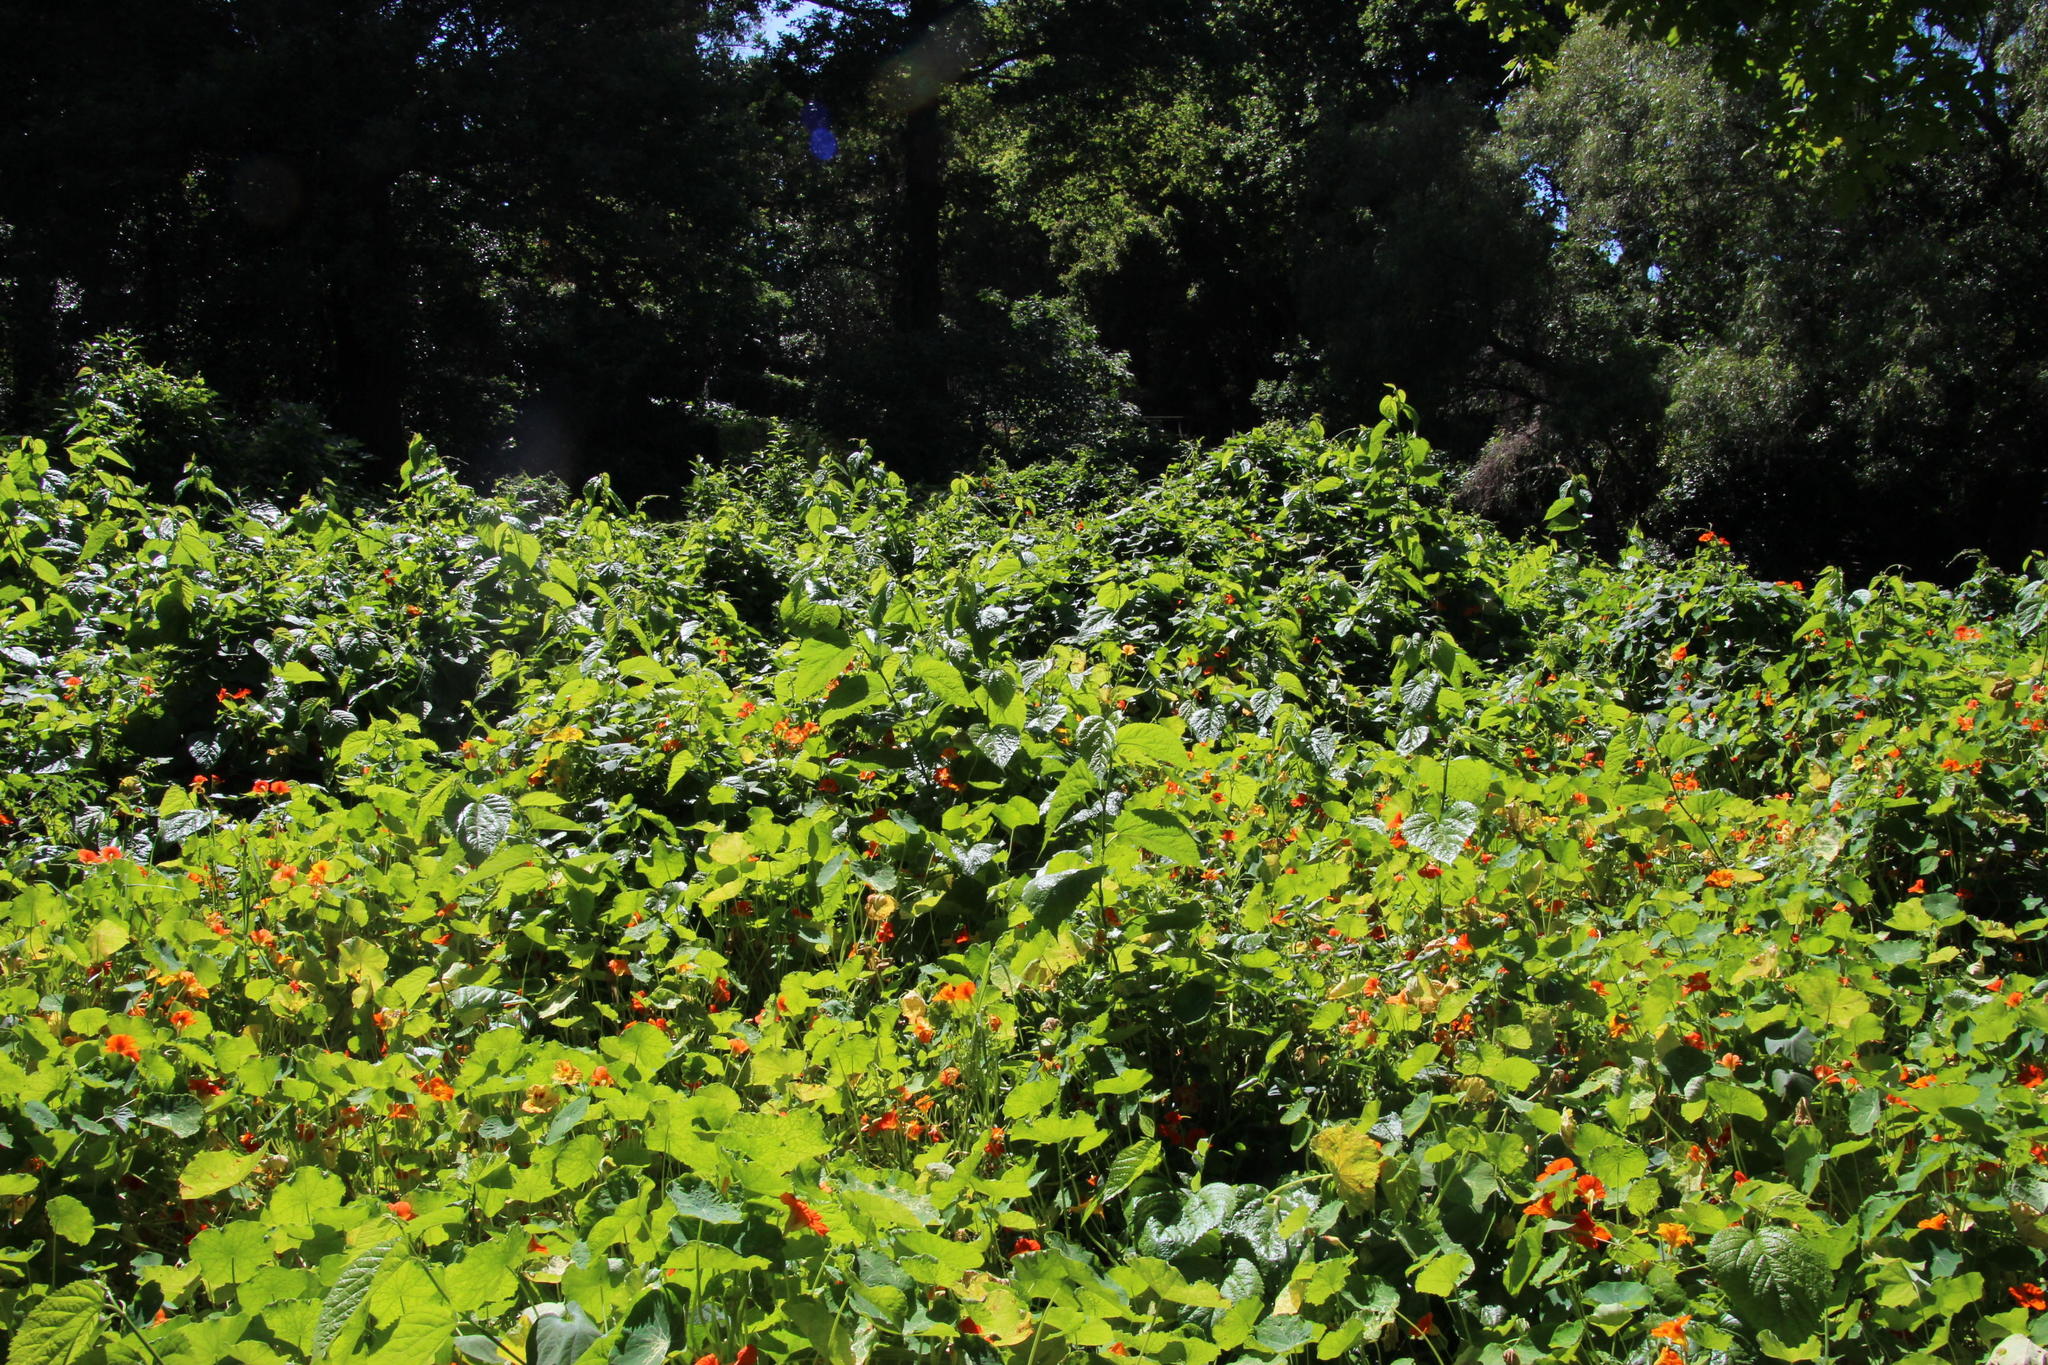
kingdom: Plantae
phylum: Tracheophyta
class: Magnoliopsida
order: Rosales
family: Moraceae
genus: Morus
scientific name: Morus alba
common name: White mulberry
